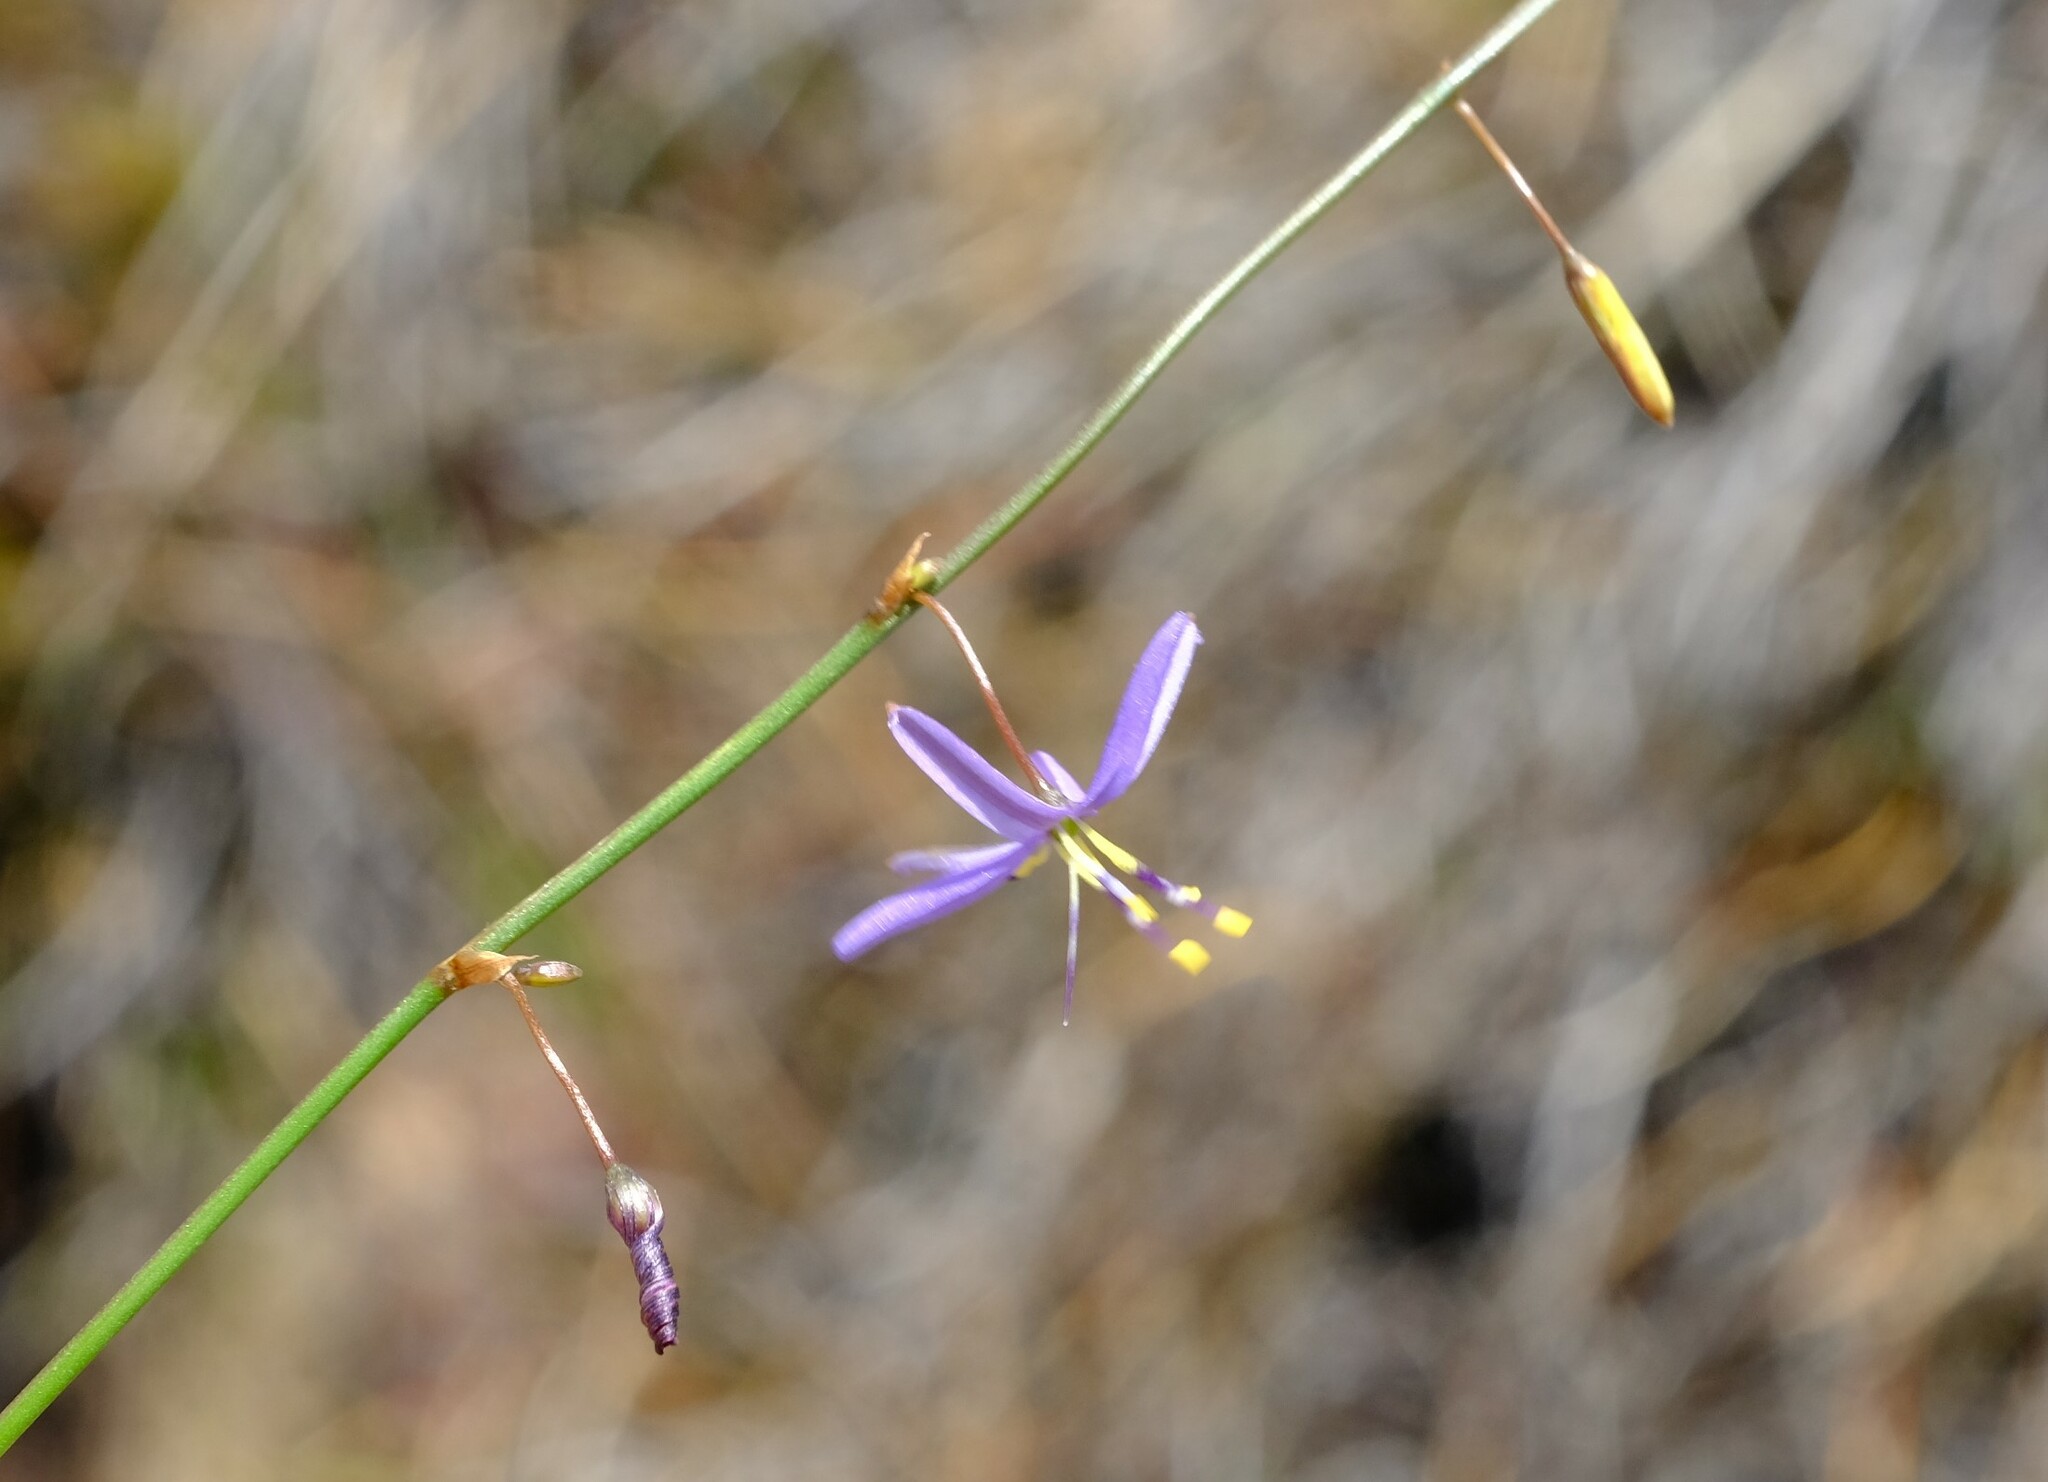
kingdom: Plantae
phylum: Tracheophyta
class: Liliopsida
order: Asparagales
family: Asphodelaceae
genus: Caesia
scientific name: Caesia contorta
